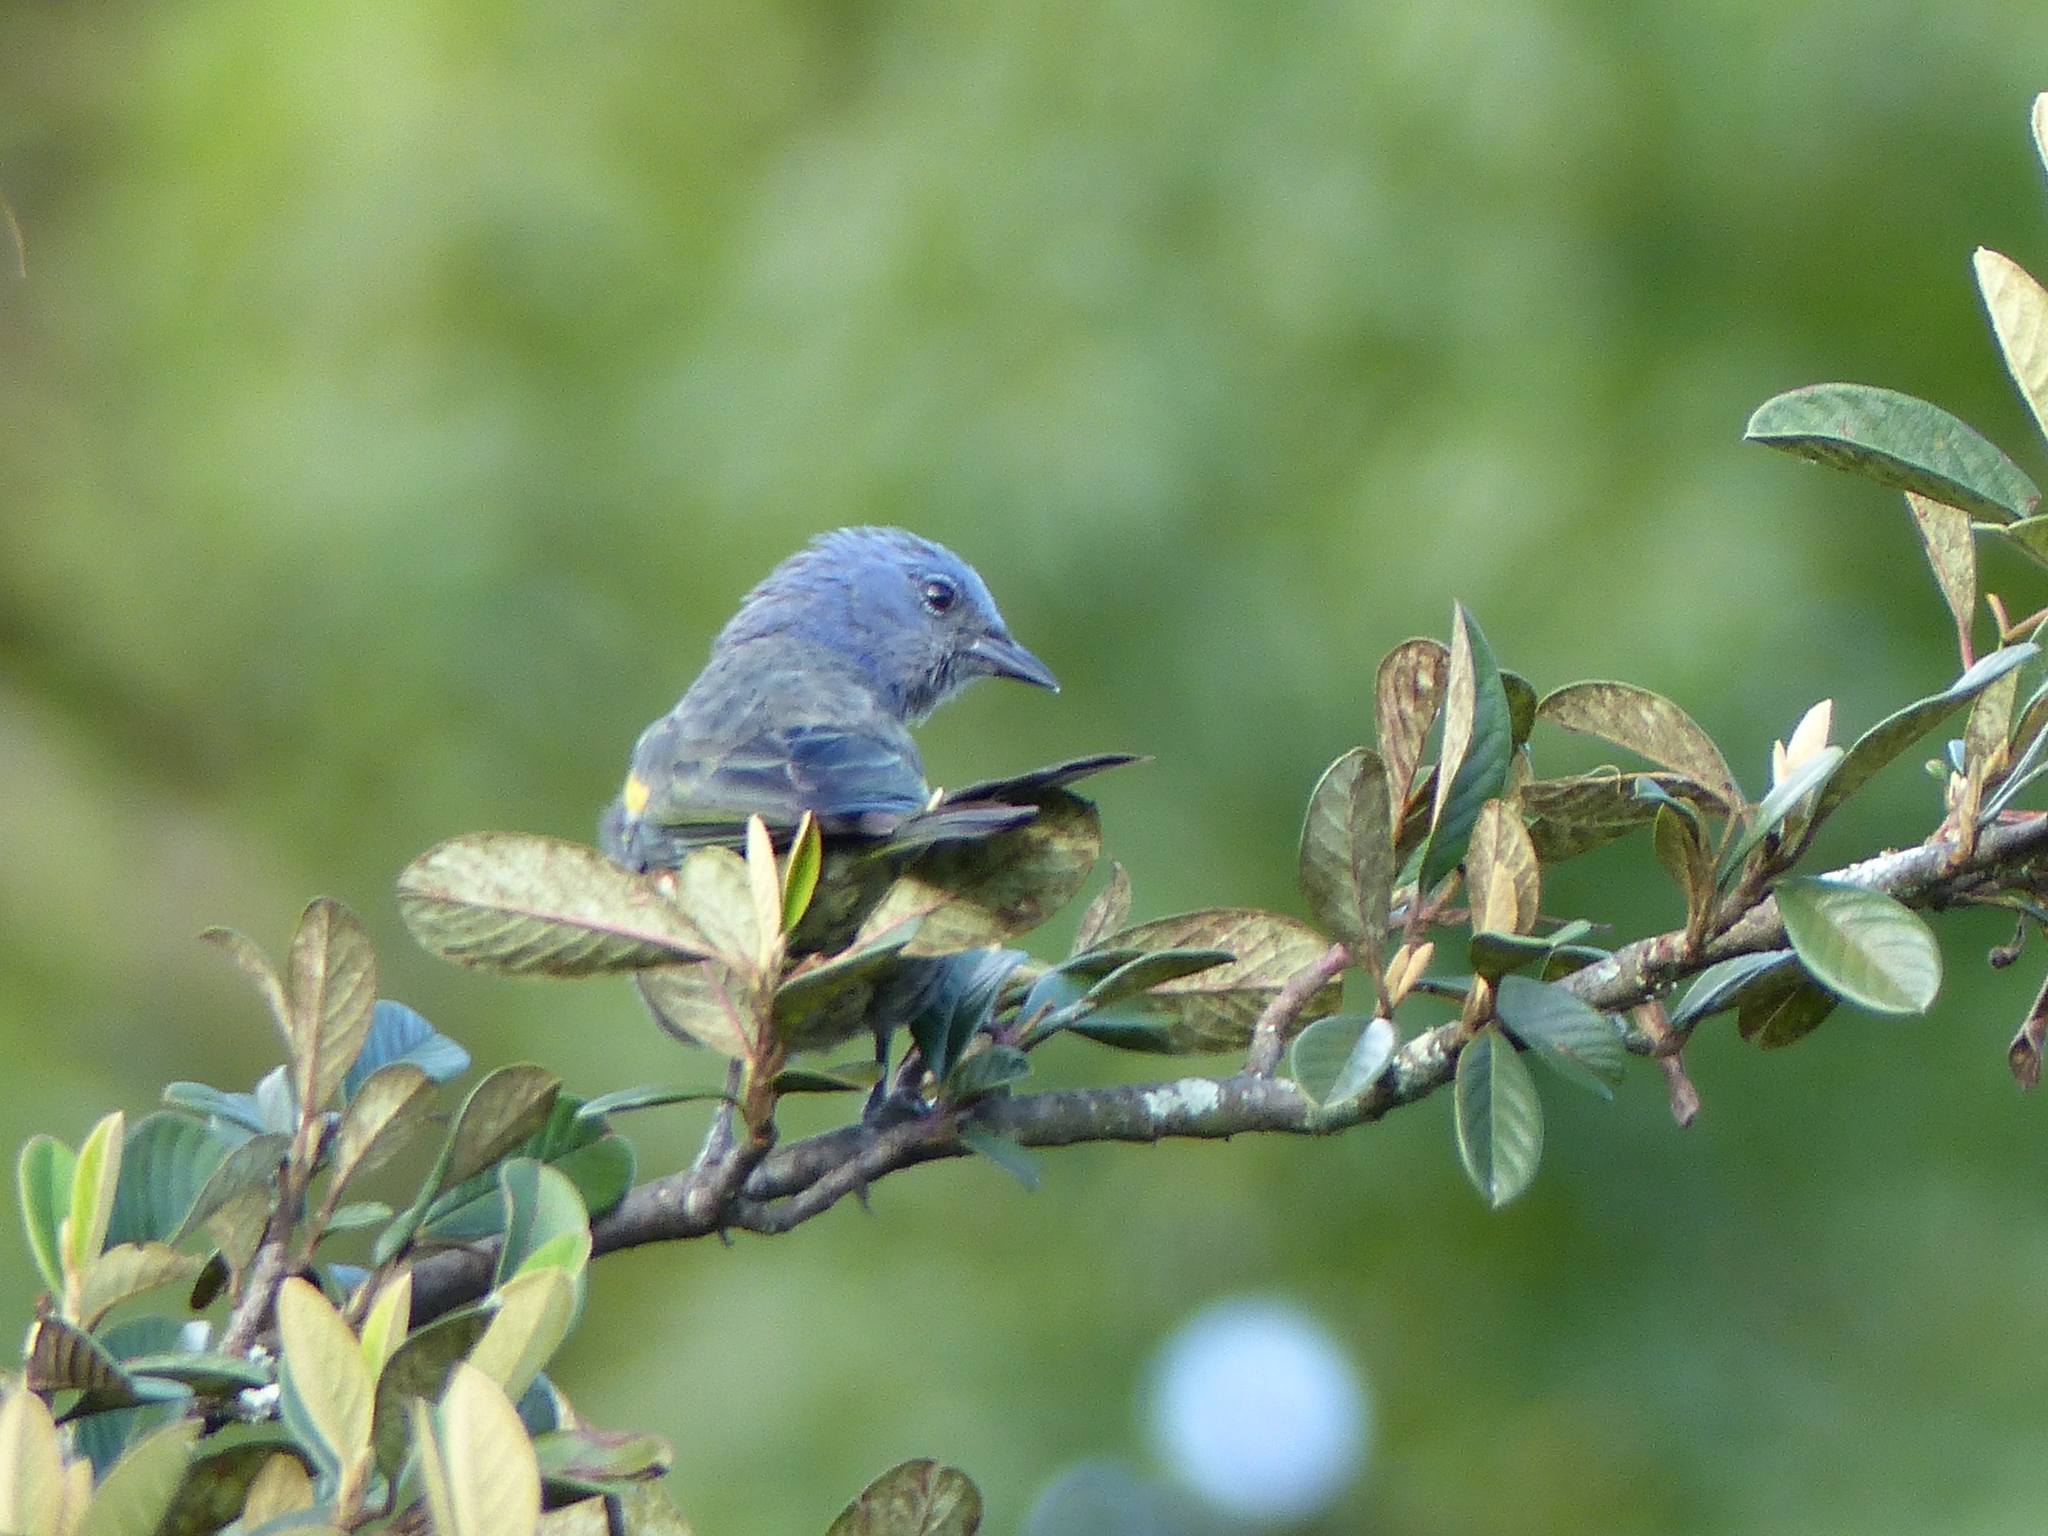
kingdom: Animalia
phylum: Chordata
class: Aves
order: Passeriformes
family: Thraupidae
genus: Thraupis
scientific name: Thraupis ornata
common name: Golden-chevroned tanager
